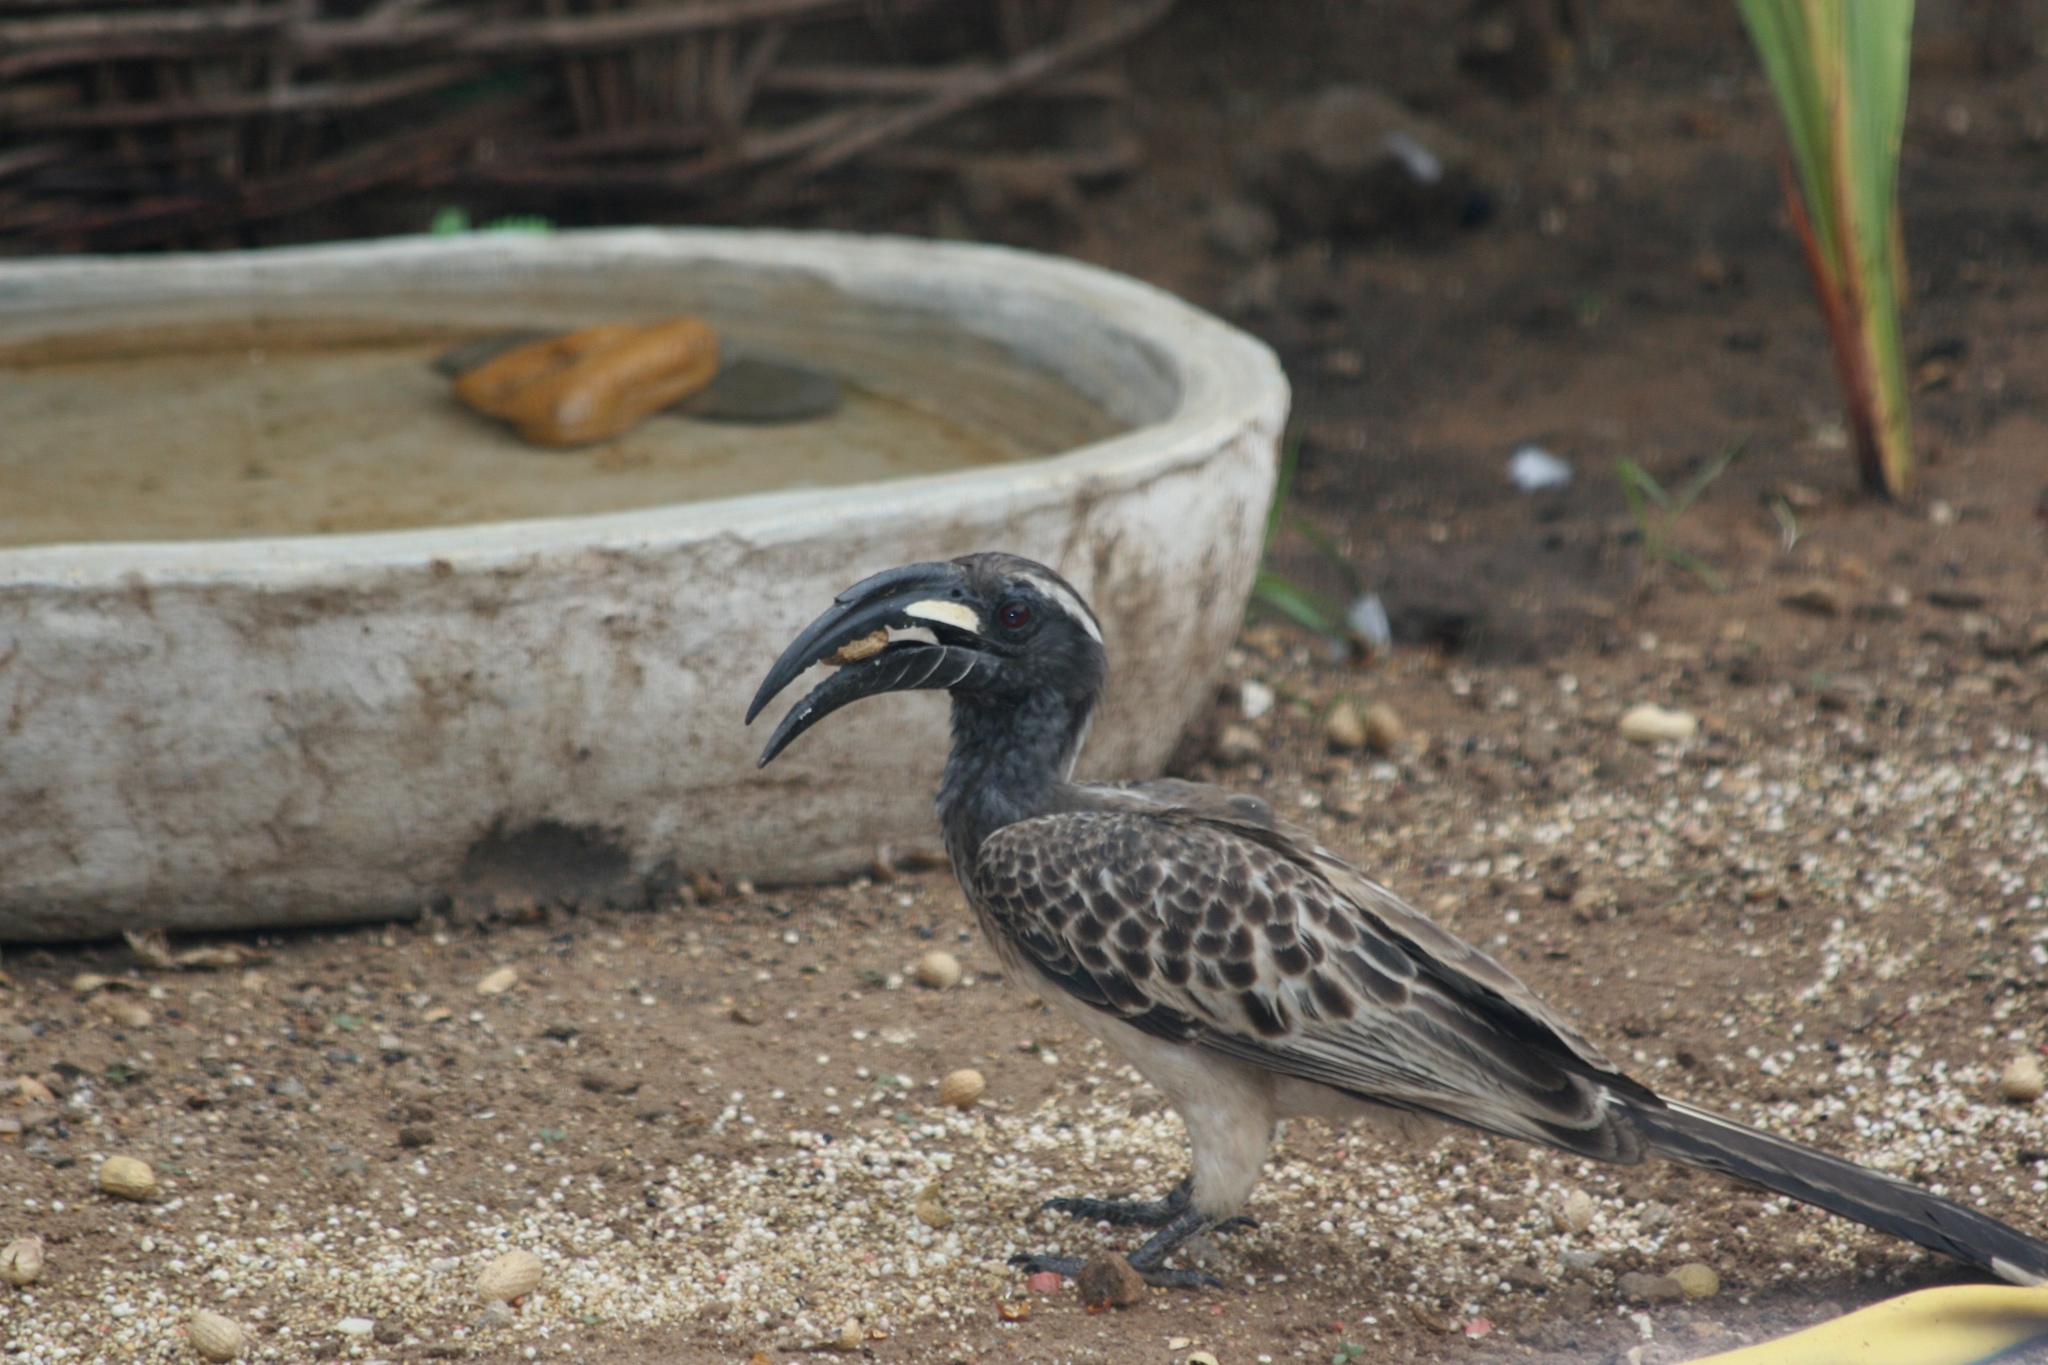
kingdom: Animalia
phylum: Chordata
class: Aves
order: Bucerotiformes
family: Bucerotidae
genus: Lophoceros
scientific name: Lophoceros nasutus
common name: African grey hornbill
